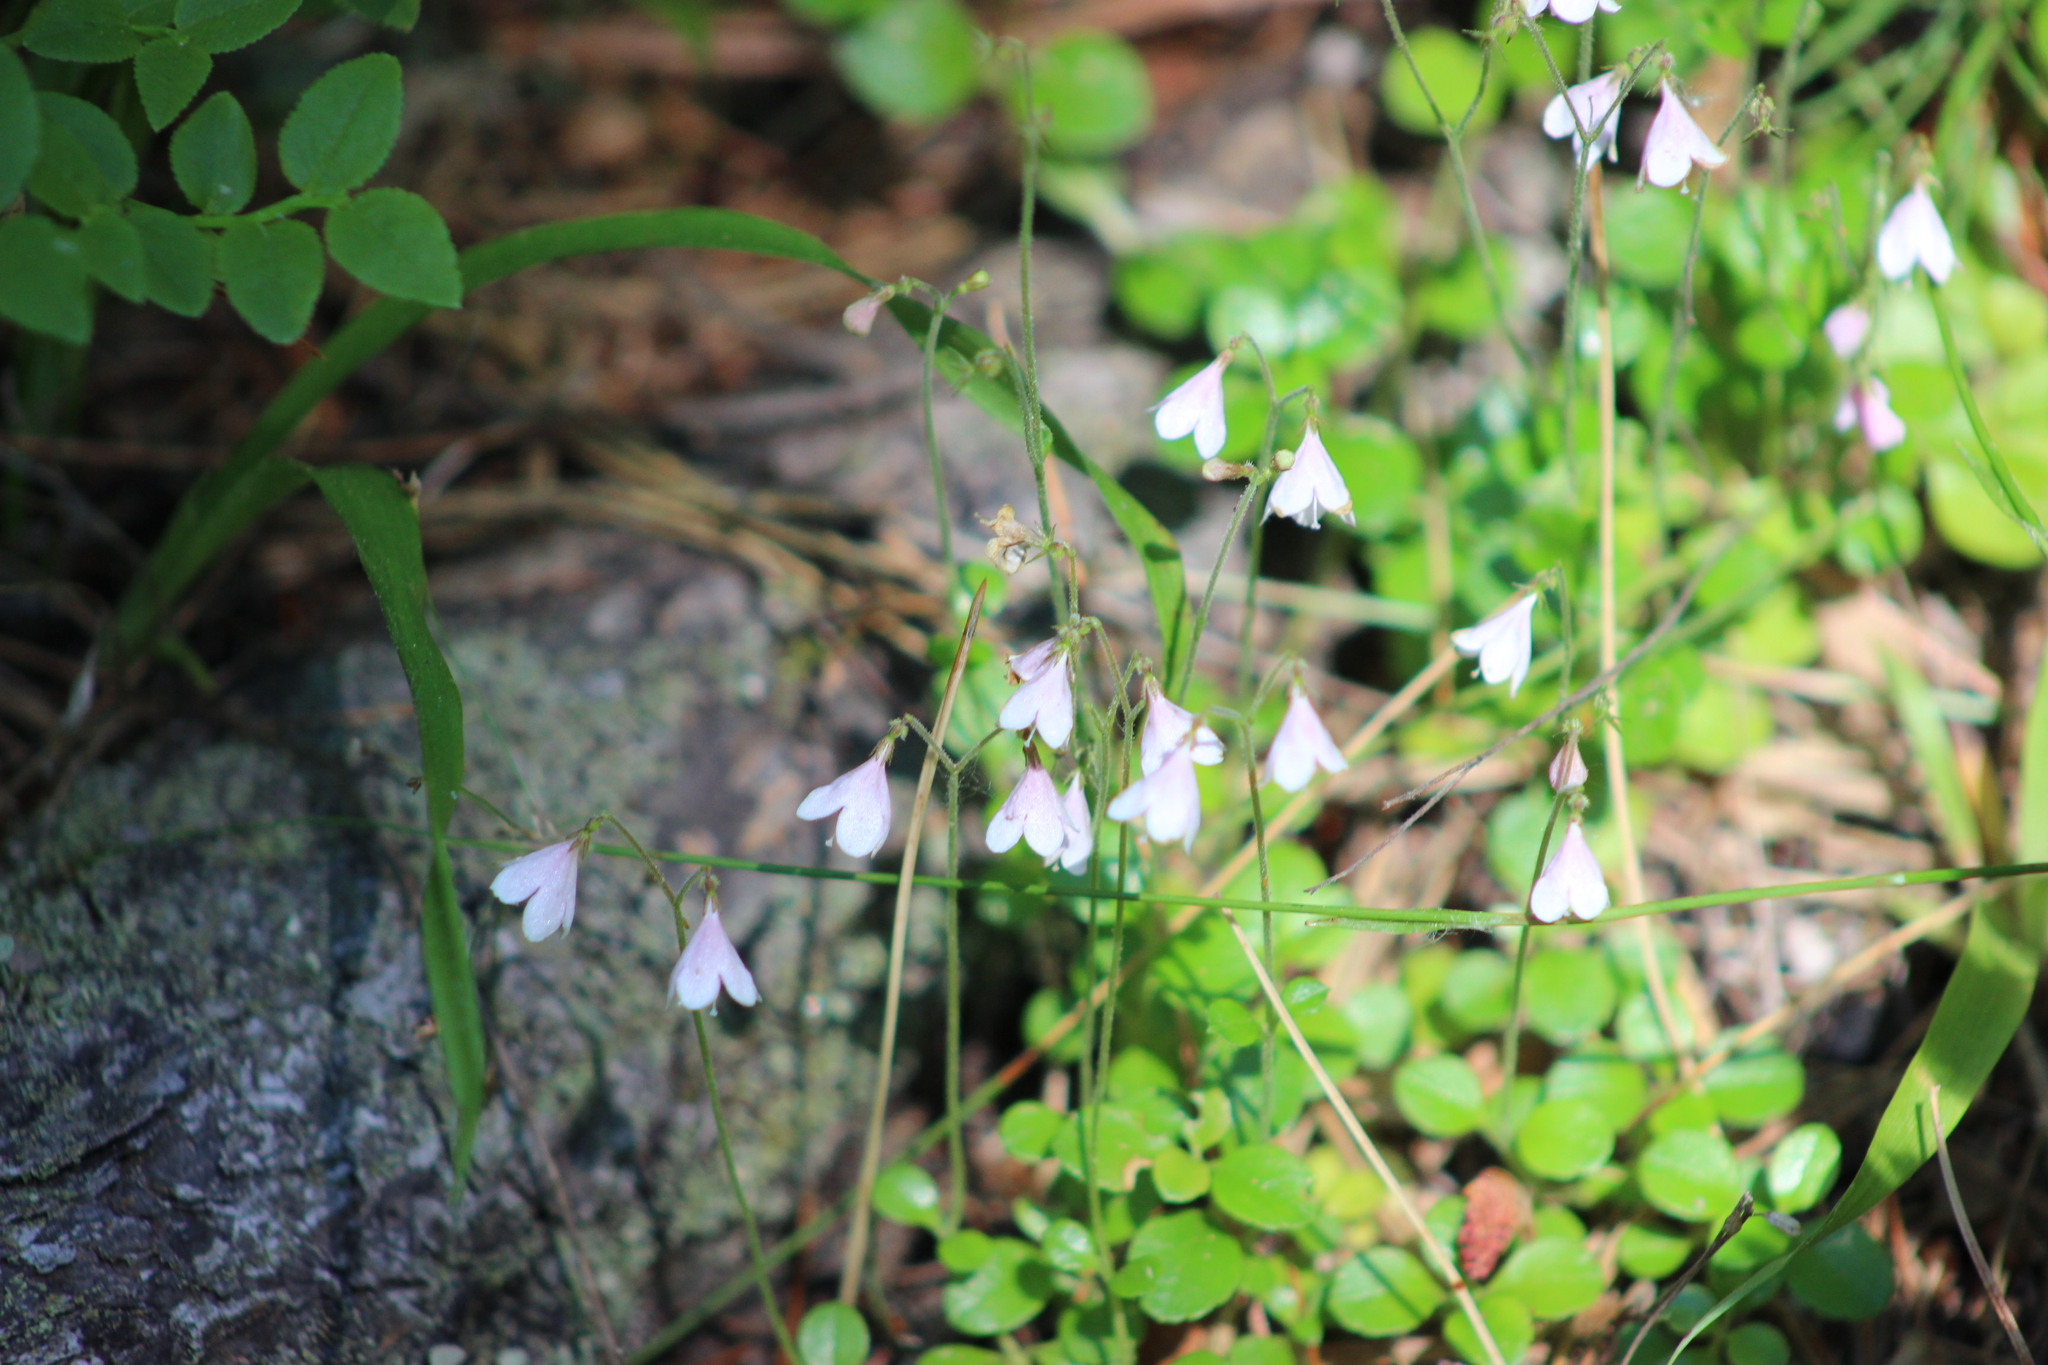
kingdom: Plantae
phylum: Tracheophyta
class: Magnoliopsida
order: Dipsacales
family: Caprifoliaceae
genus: Linnaea
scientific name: Linnaea borealis
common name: Twinflower
